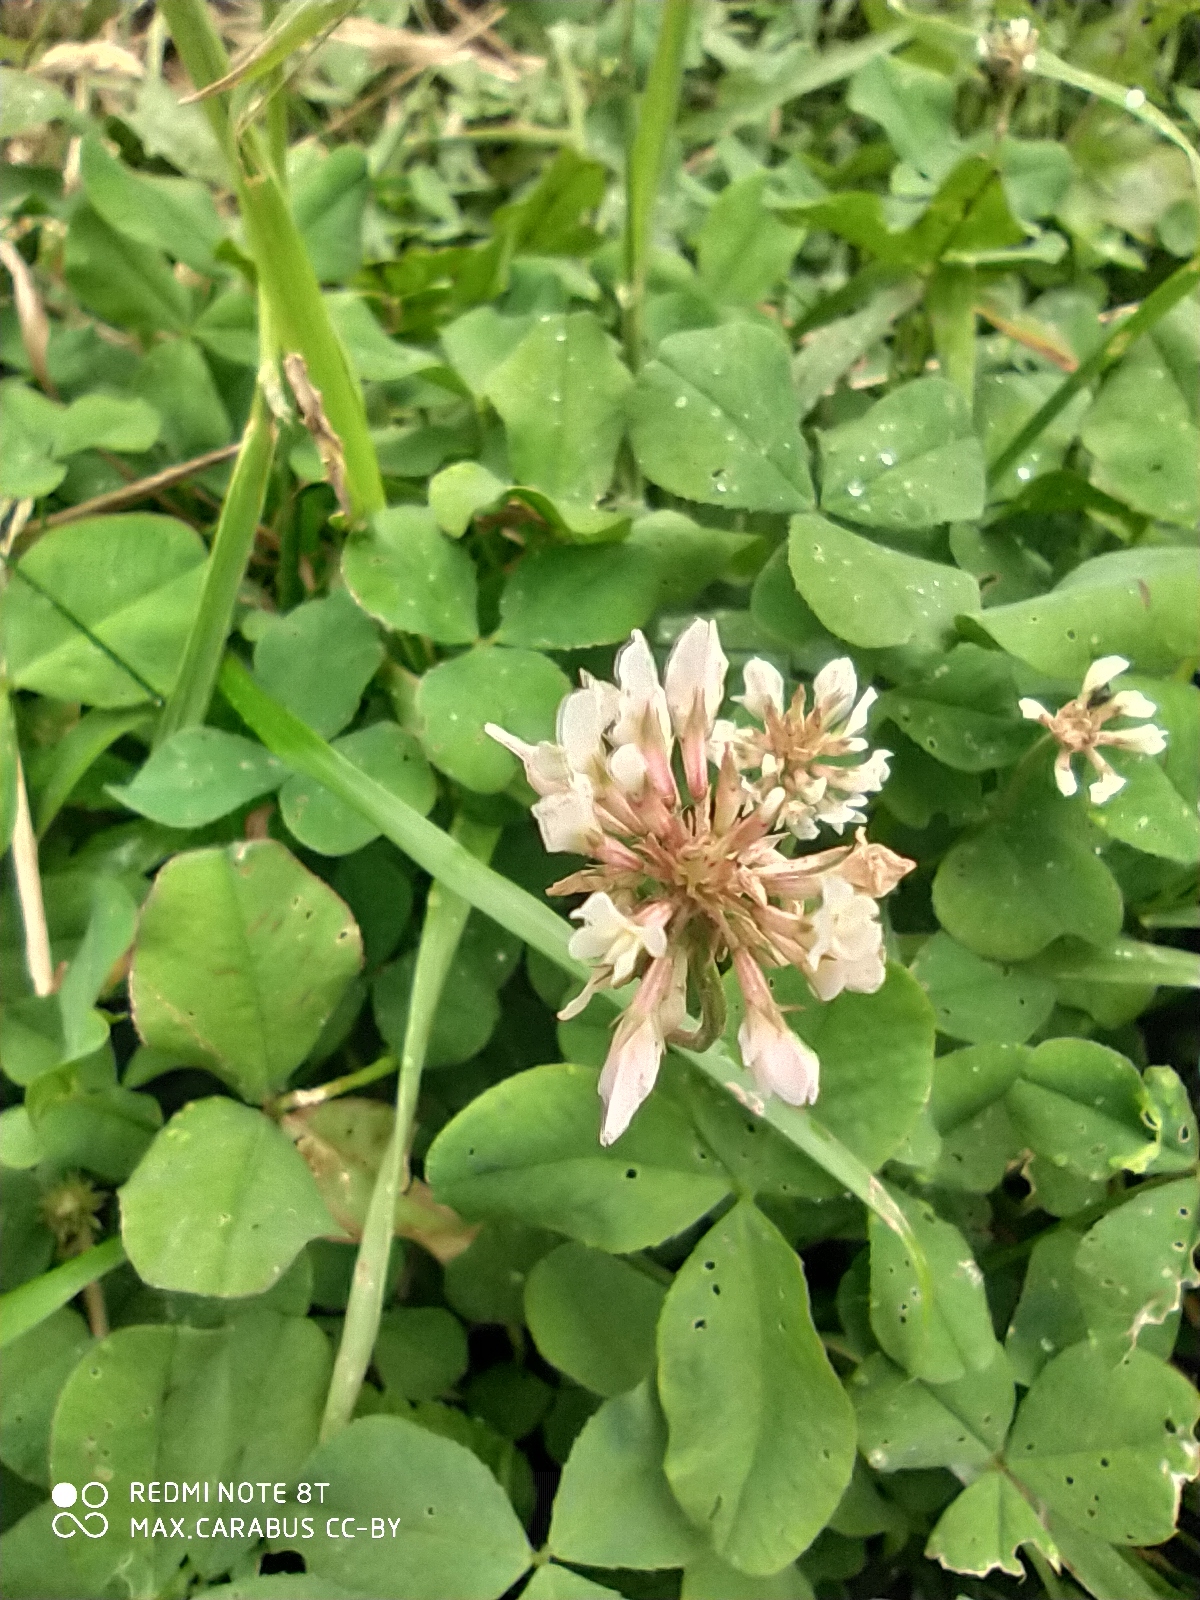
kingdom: Plantae
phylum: Tracheophyta
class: Magnoliopsida
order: Fabales
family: Fabaceae
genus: Trifolium
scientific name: Trifolium repens
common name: White clover
